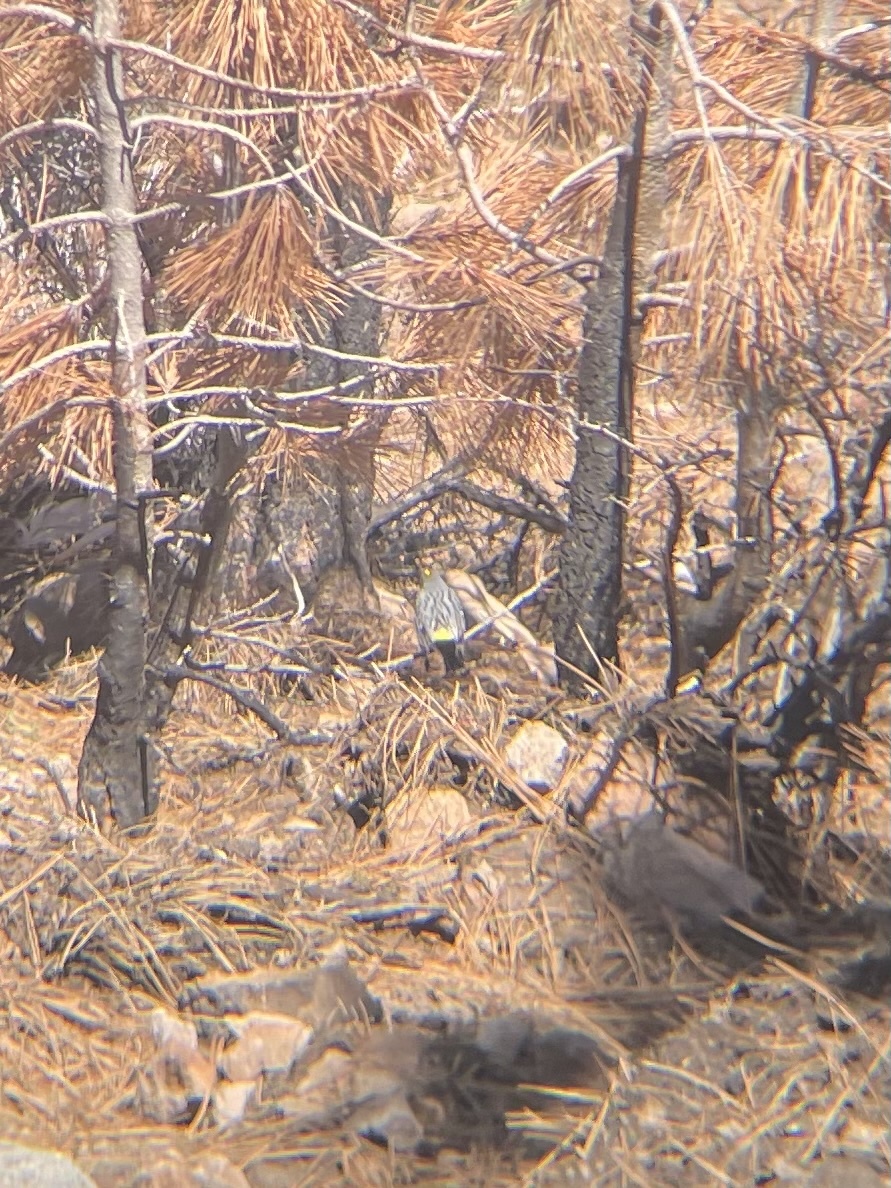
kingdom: Animalia
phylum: Chordata
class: Aves
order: Passeriformes
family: Parulidae
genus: Setophaga
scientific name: Setophaga coronata
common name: Myrtle warbler
